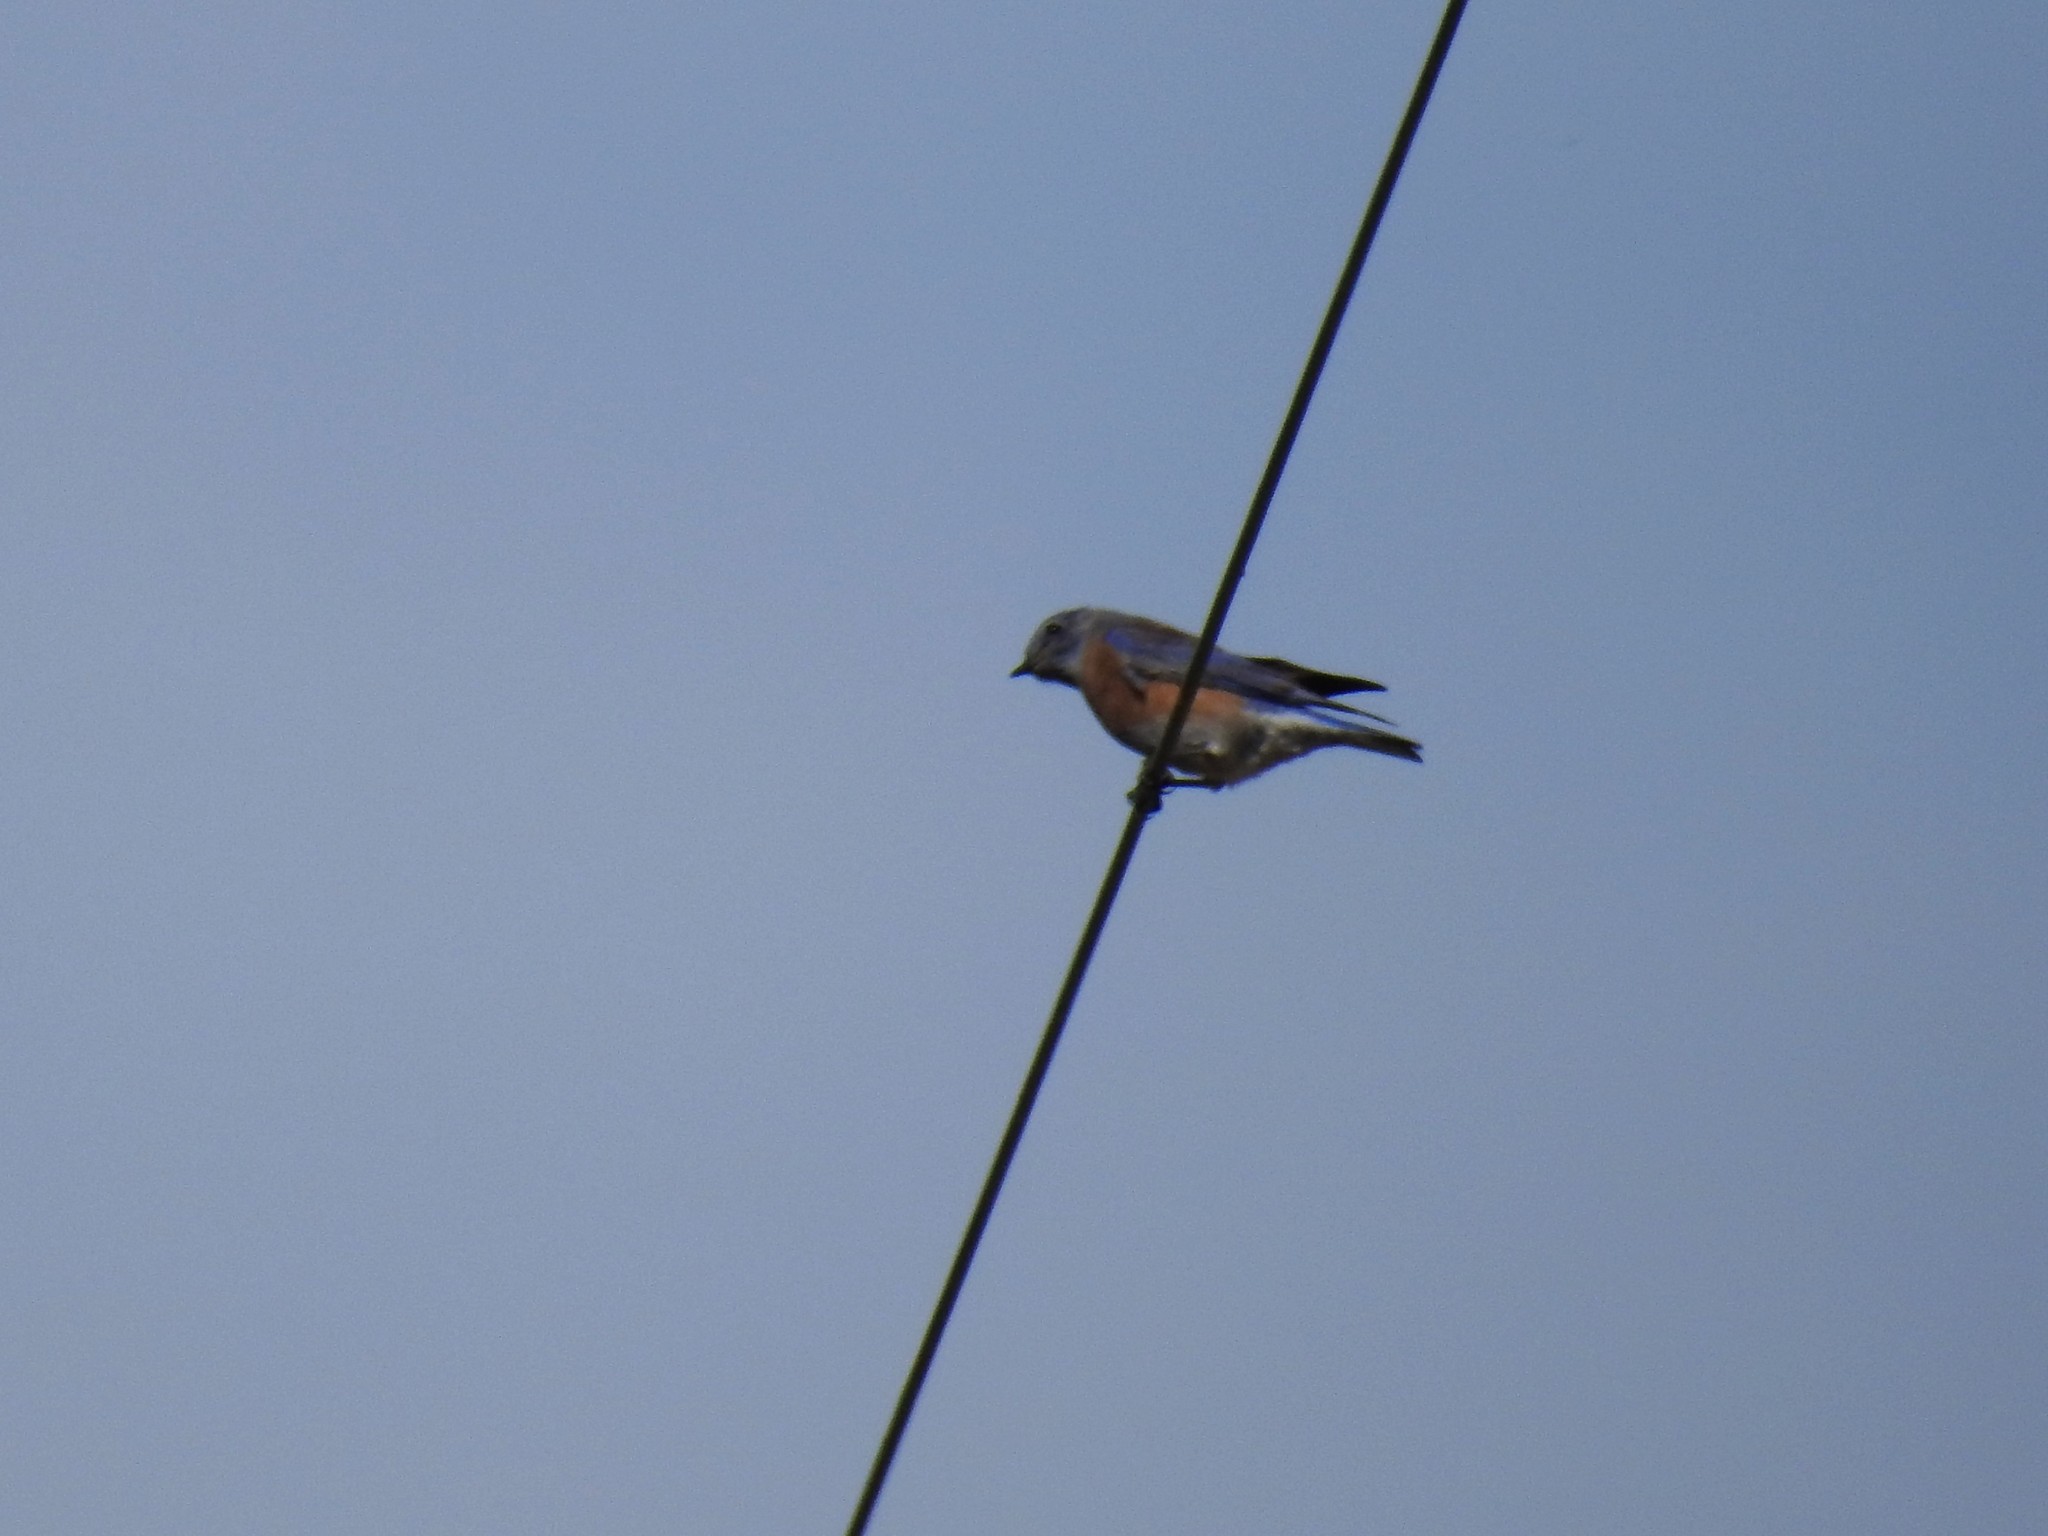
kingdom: Animalia
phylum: Chordata
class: Aves
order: Passeriformes
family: Turdidae
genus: Sialia
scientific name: Sialia mexicana
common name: Western bluebird
